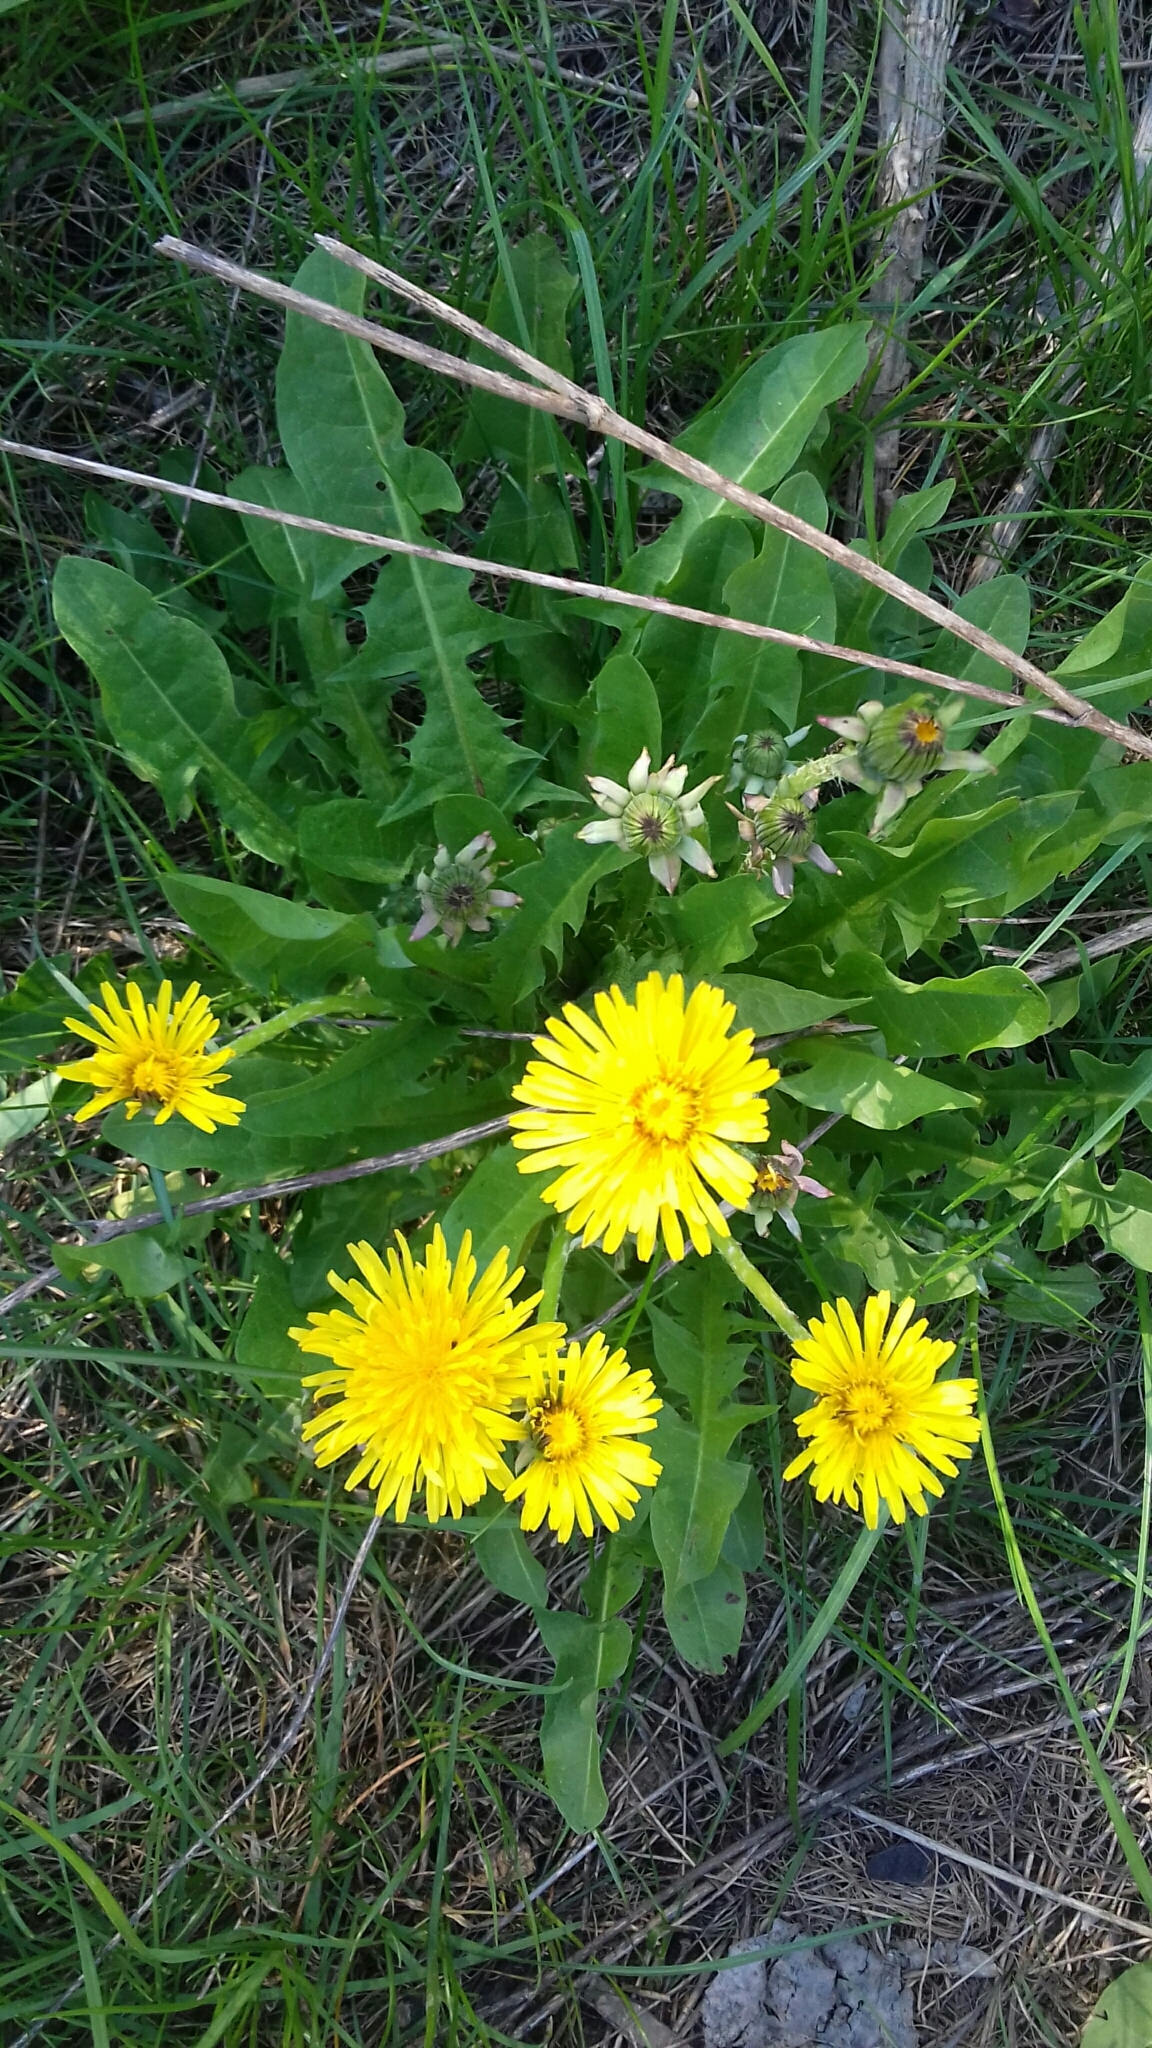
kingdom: Plantae
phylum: Tracheophyta
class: Magnoliopsida
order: Asterales
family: Asteraceae
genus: Taraxacum
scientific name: Taraxacum officinale
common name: Common dandelion
